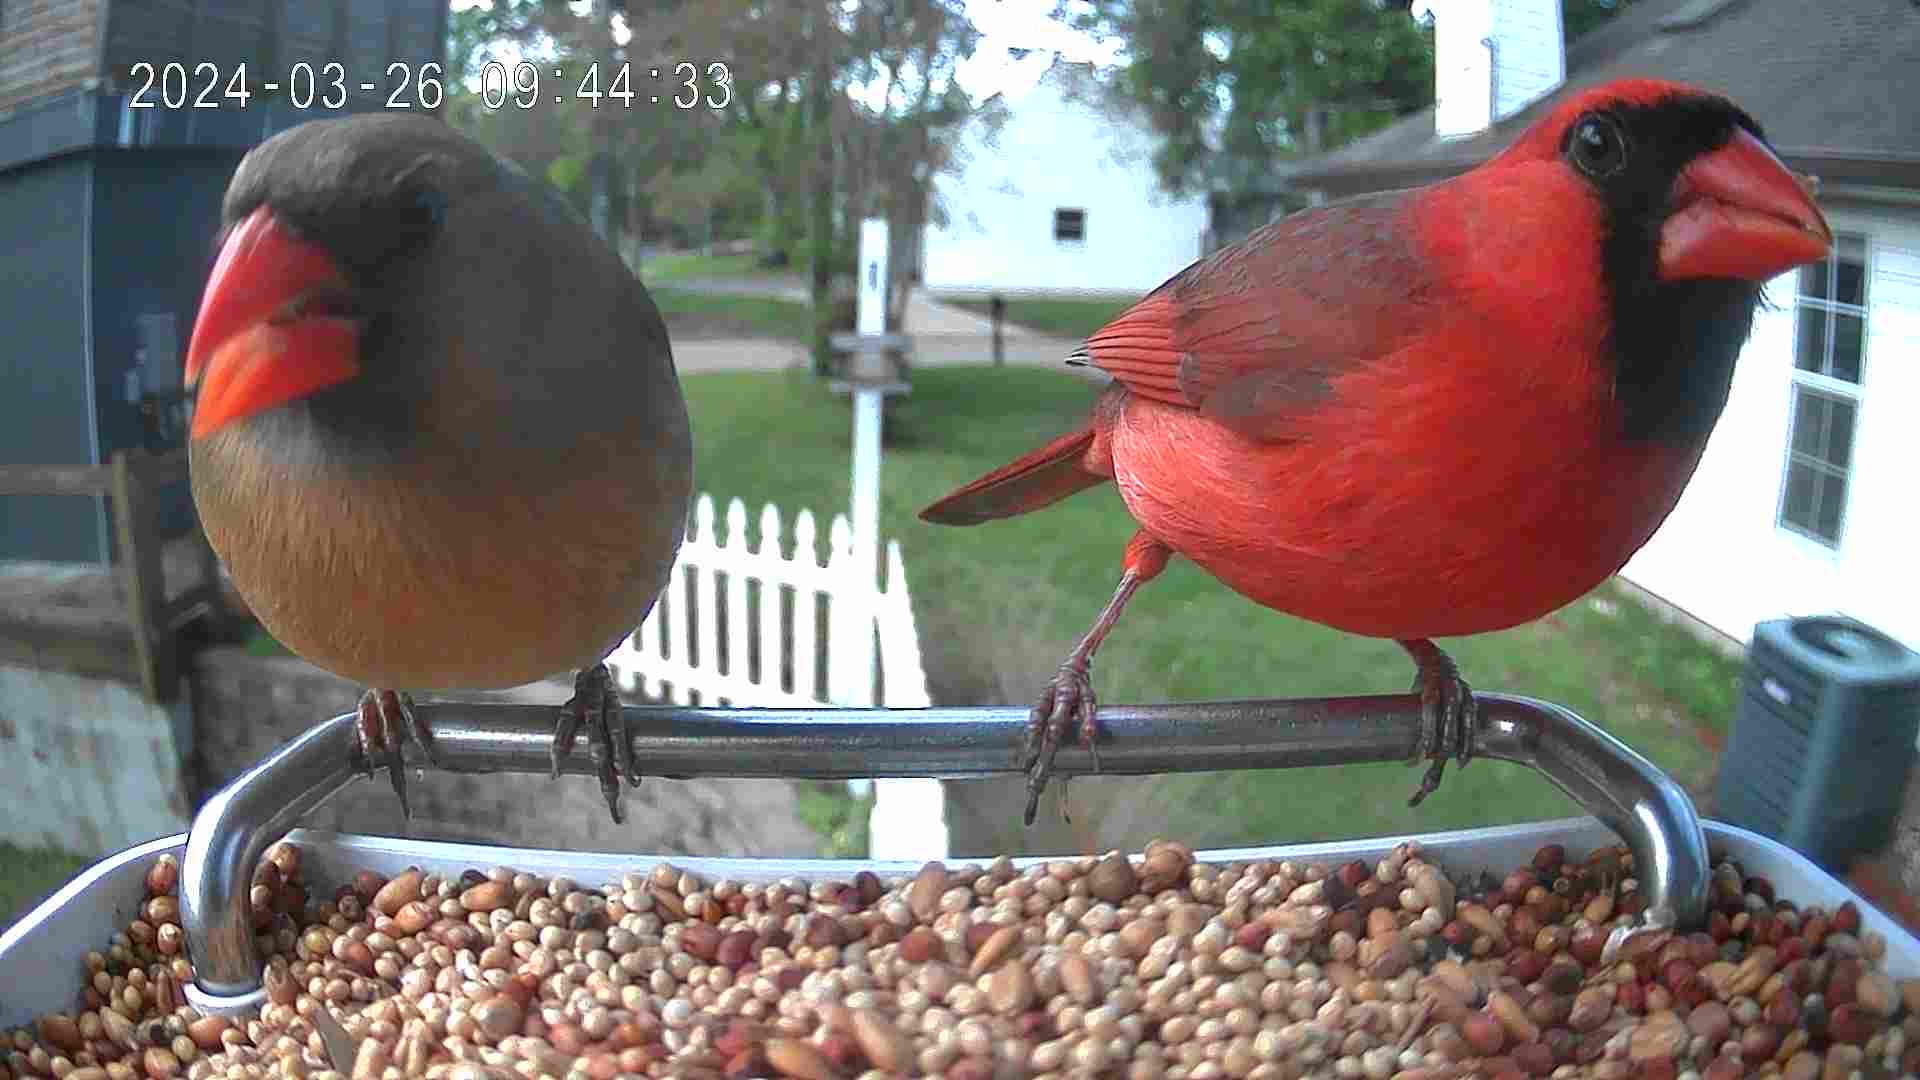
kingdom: Animalia
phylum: Chordata
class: Aves
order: Passeriformes
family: Cardinalidae
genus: Cardinalis
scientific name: Cardinalis cardinalis
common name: Northern cardinal
